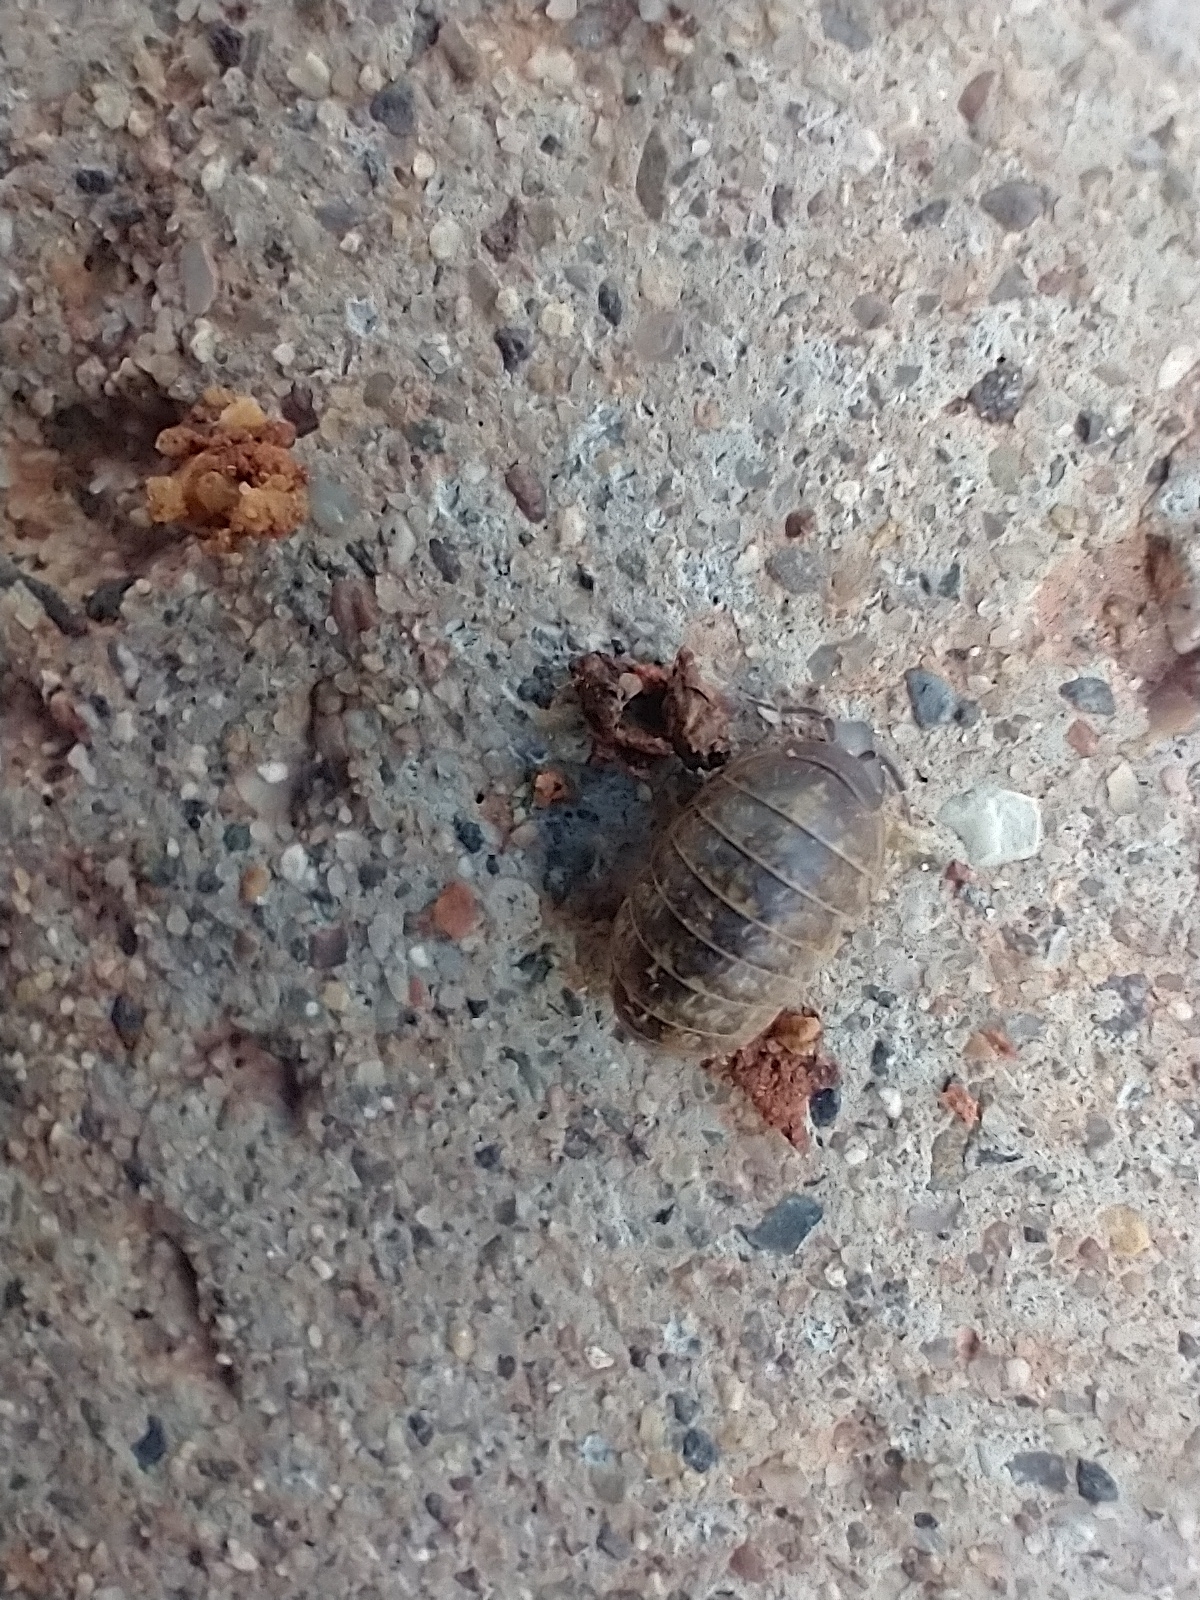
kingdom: Animalia
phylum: Arthropoda
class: Malacostraca
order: Isopoda
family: Armadillidiidae
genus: Armadillidium
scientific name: Armadillidium vulgare
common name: Common pill woodlouse
